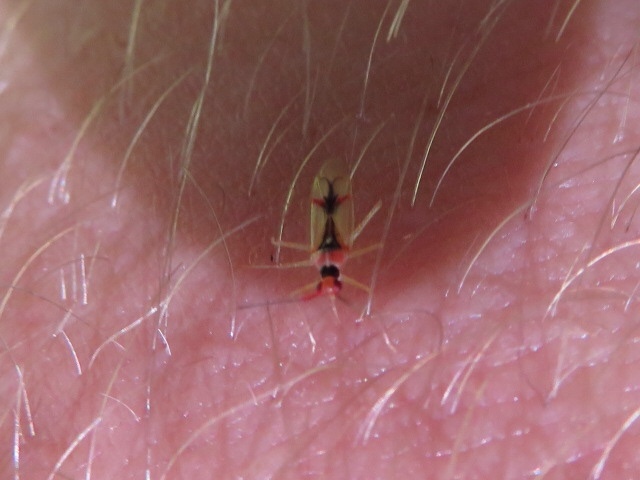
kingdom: Animalia
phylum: Arthropoda
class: Insecta
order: Hemiptera
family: Miridae
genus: Hyaliodes
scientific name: Hyaliodes harti
